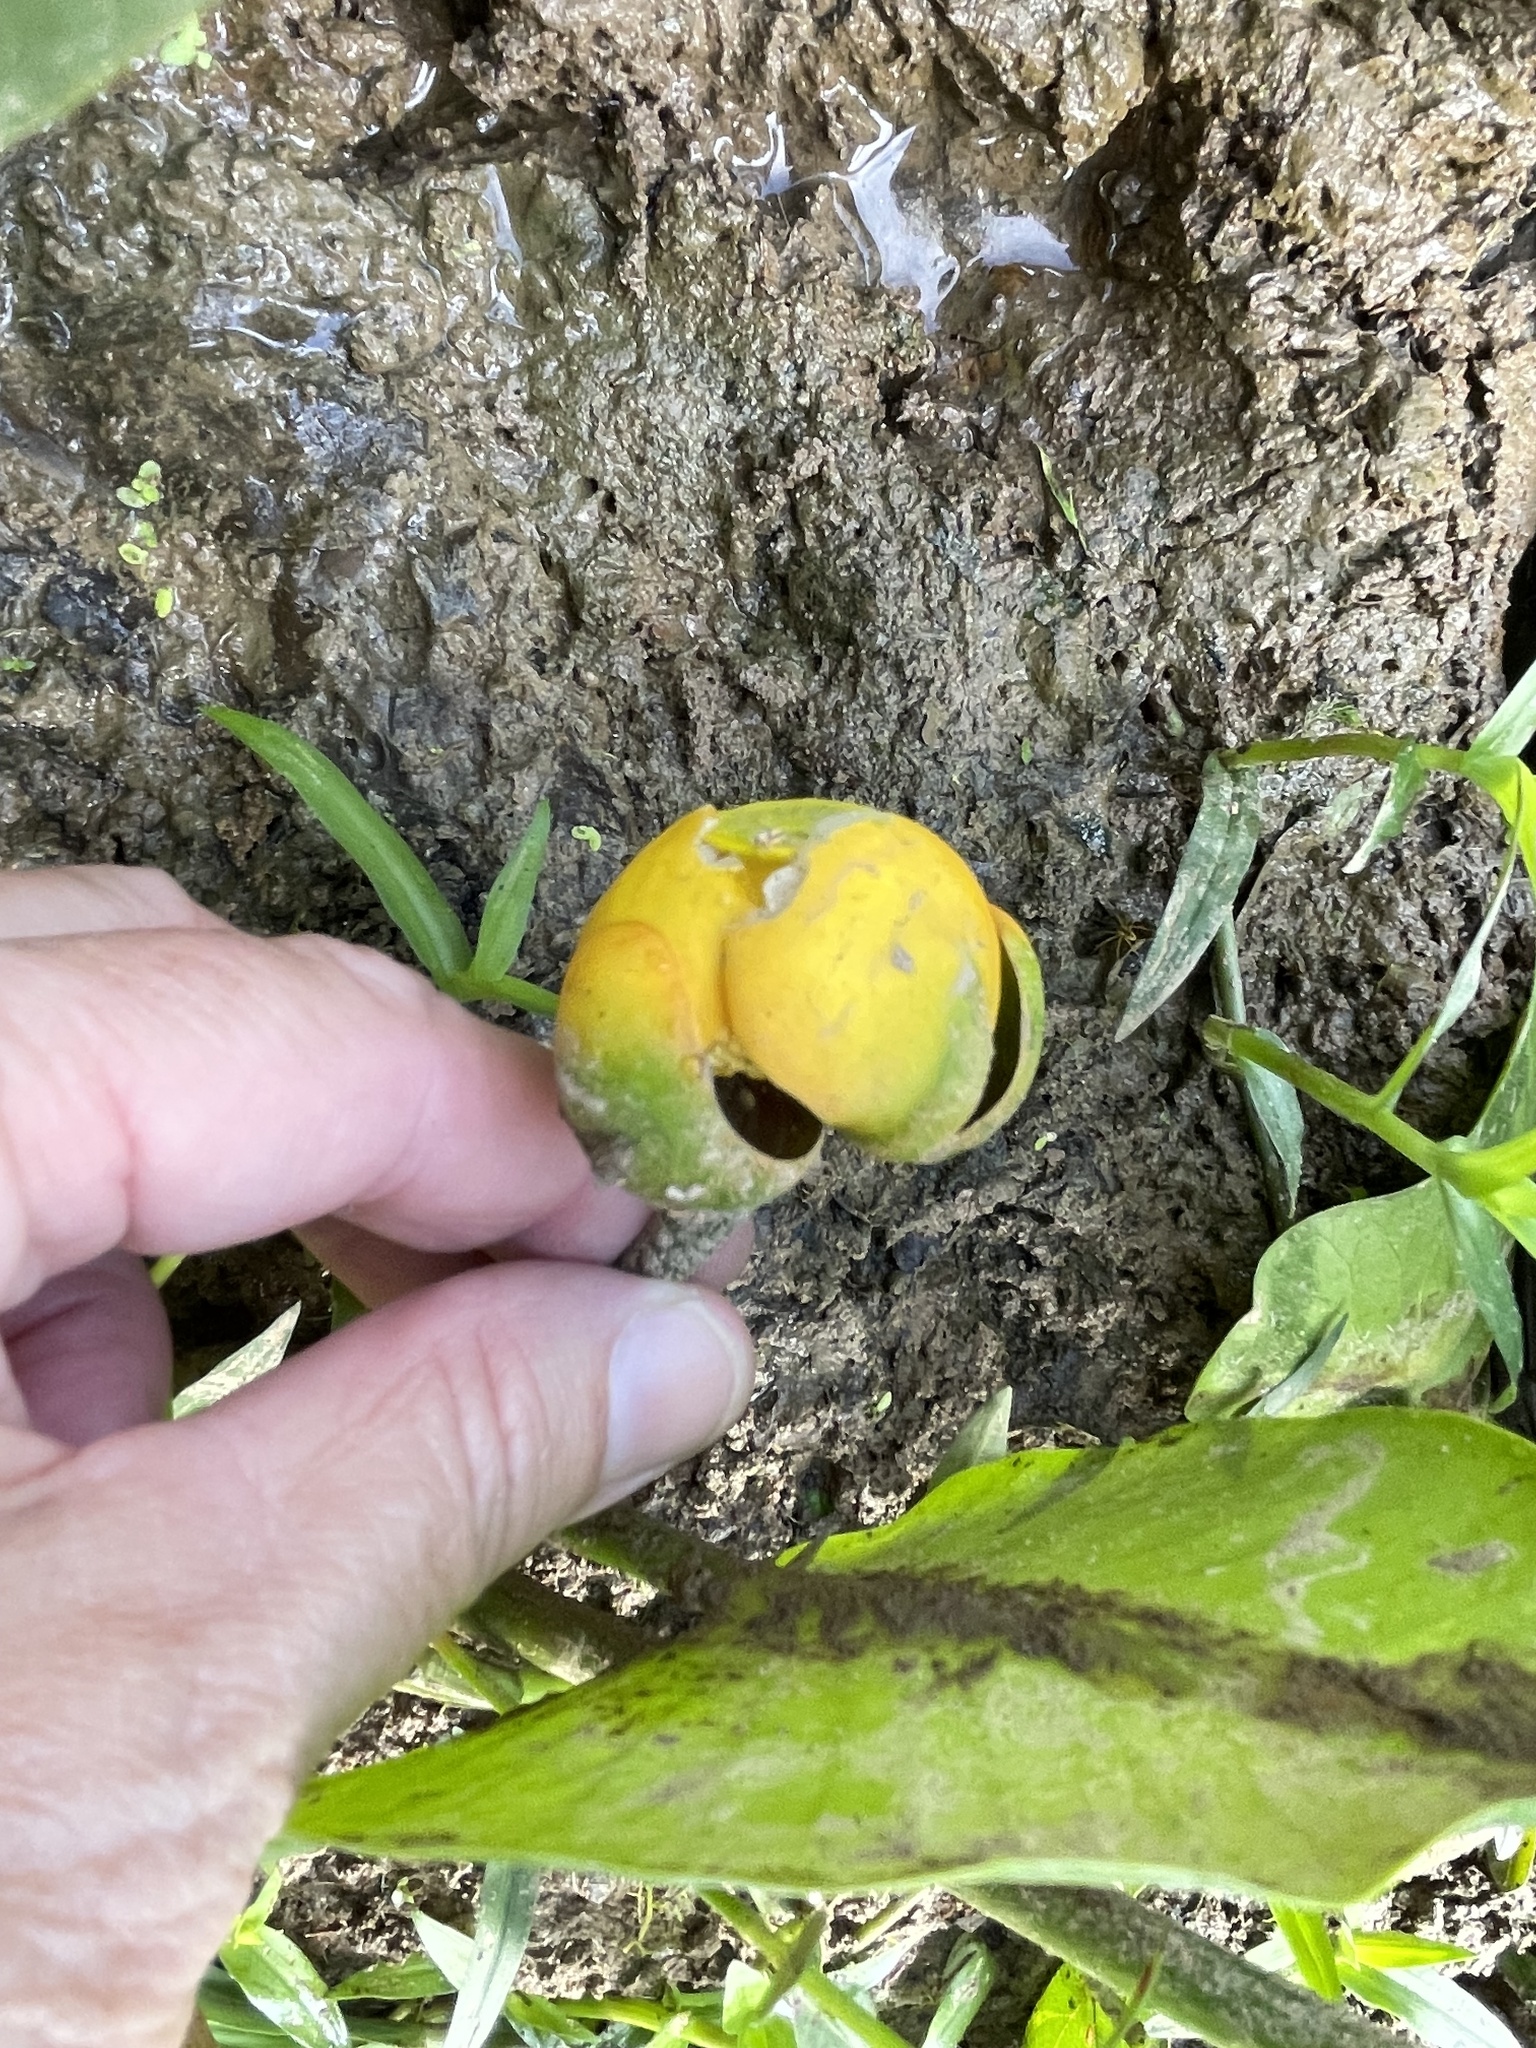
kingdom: Plantae
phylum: Tracheophyta
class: Magnoliopsida
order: Nymphaeales
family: Nymphaeaceae
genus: Nuphar
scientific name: Nuphar advena
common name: Spatter-dock
